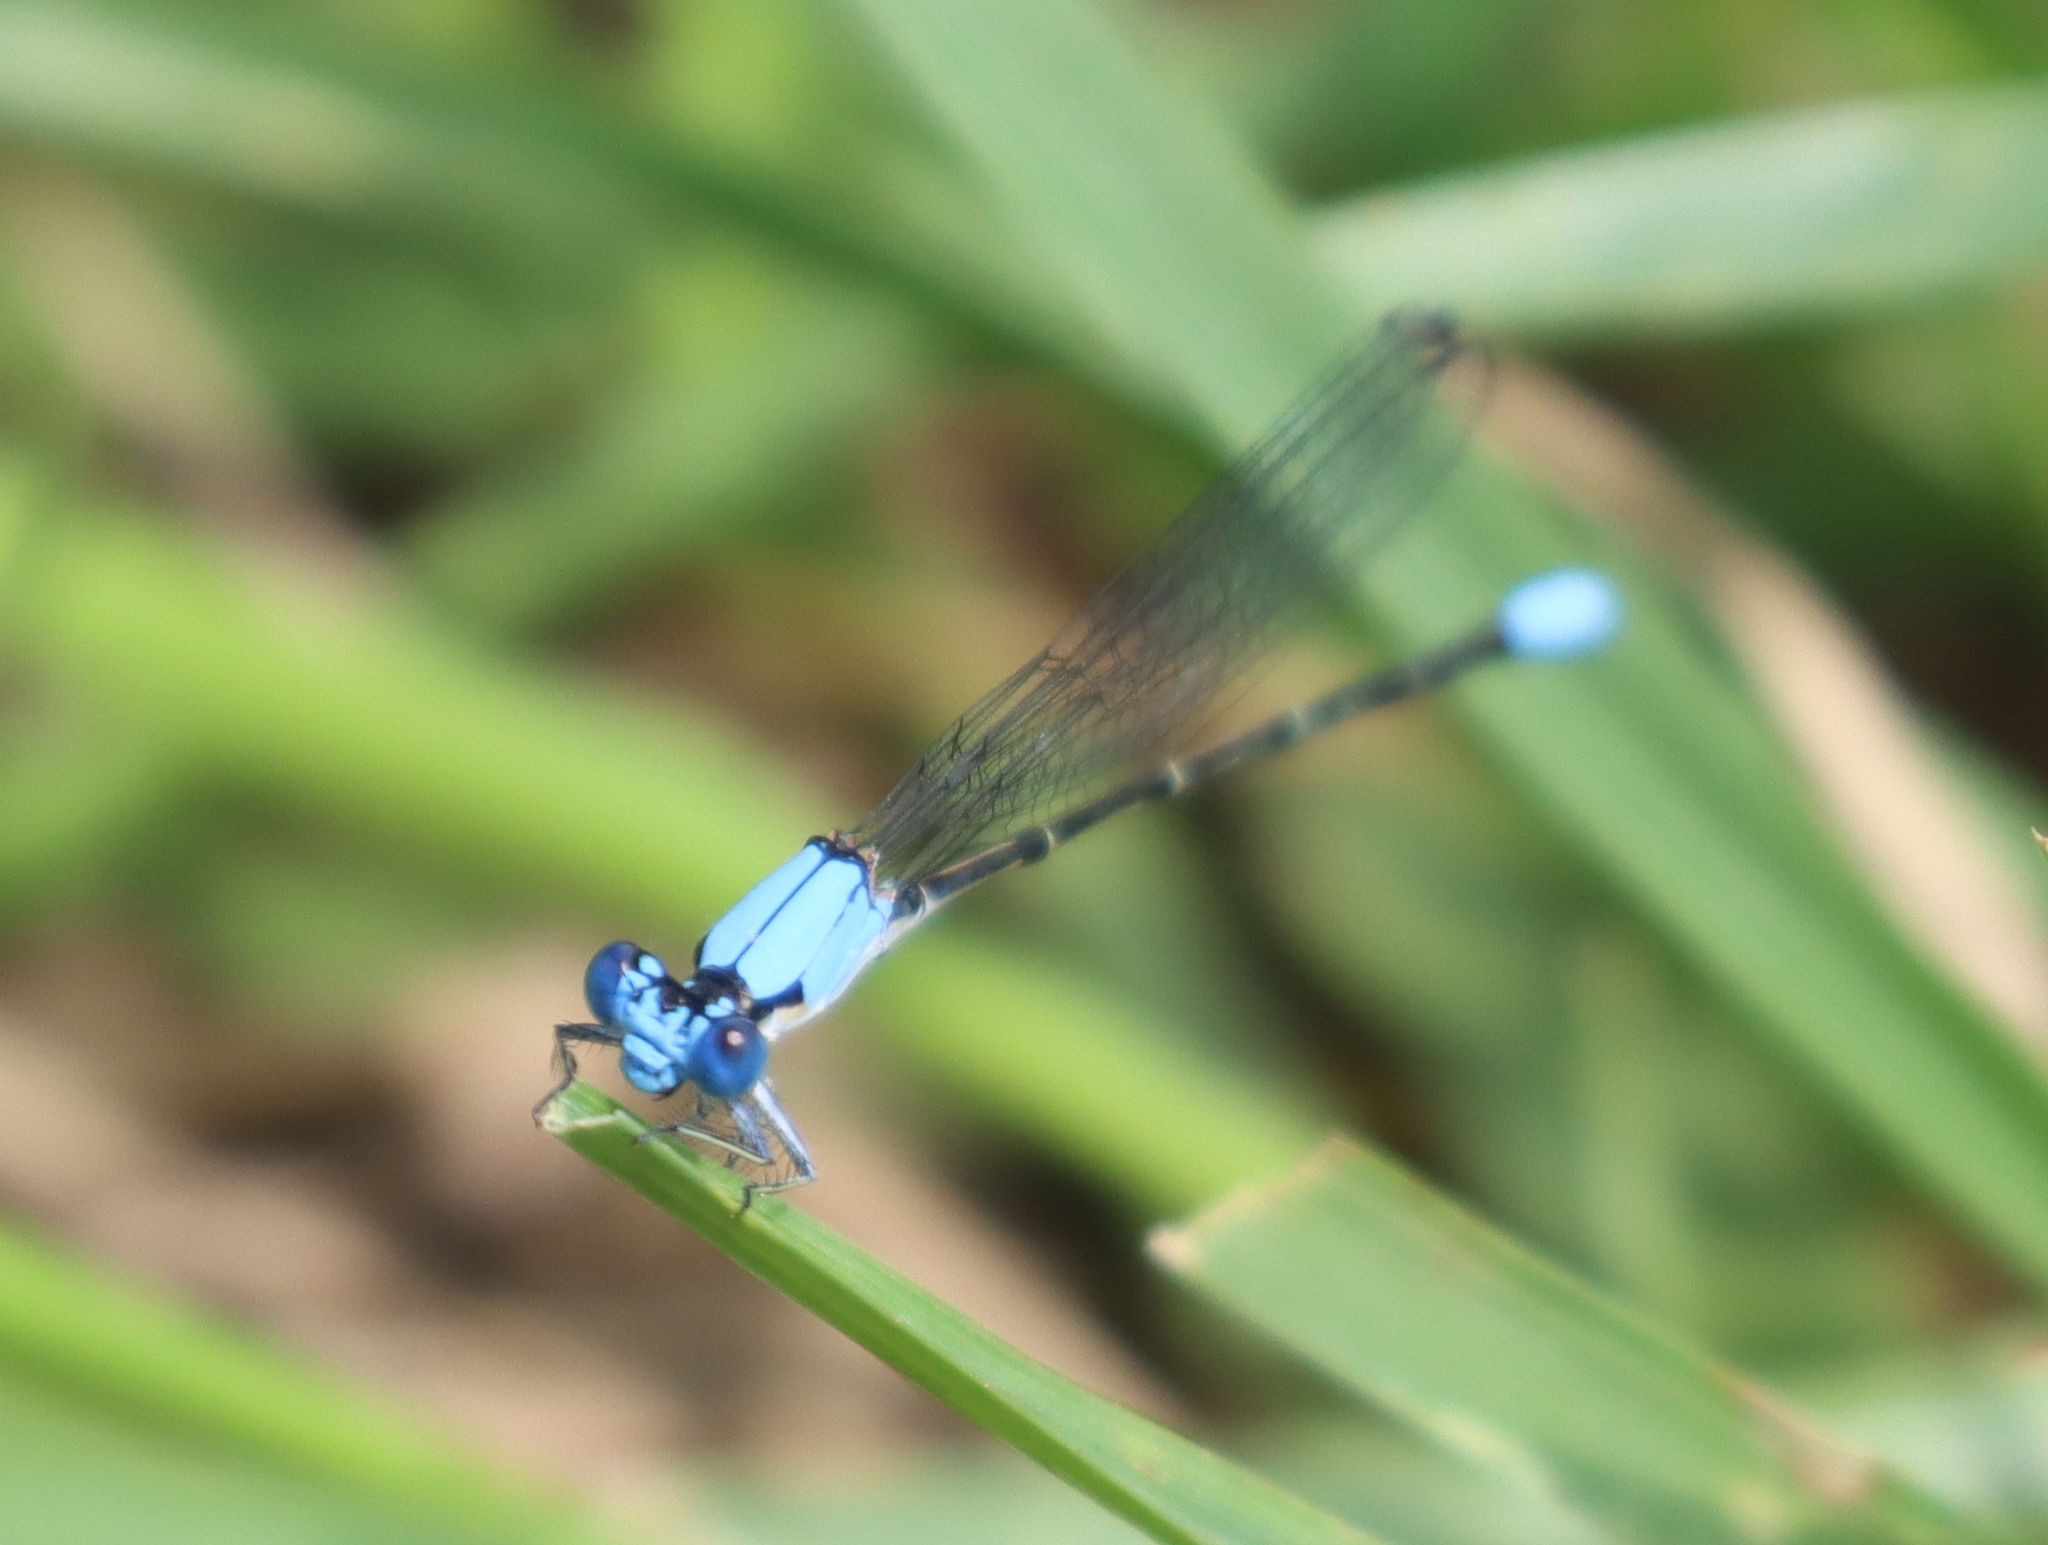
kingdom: Animalia
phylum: Arthropoda
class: Insecta
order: Odonata
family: Coenagrionidae
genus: Argia
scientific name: Argia apicalis
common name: Blue-fronted dancer
